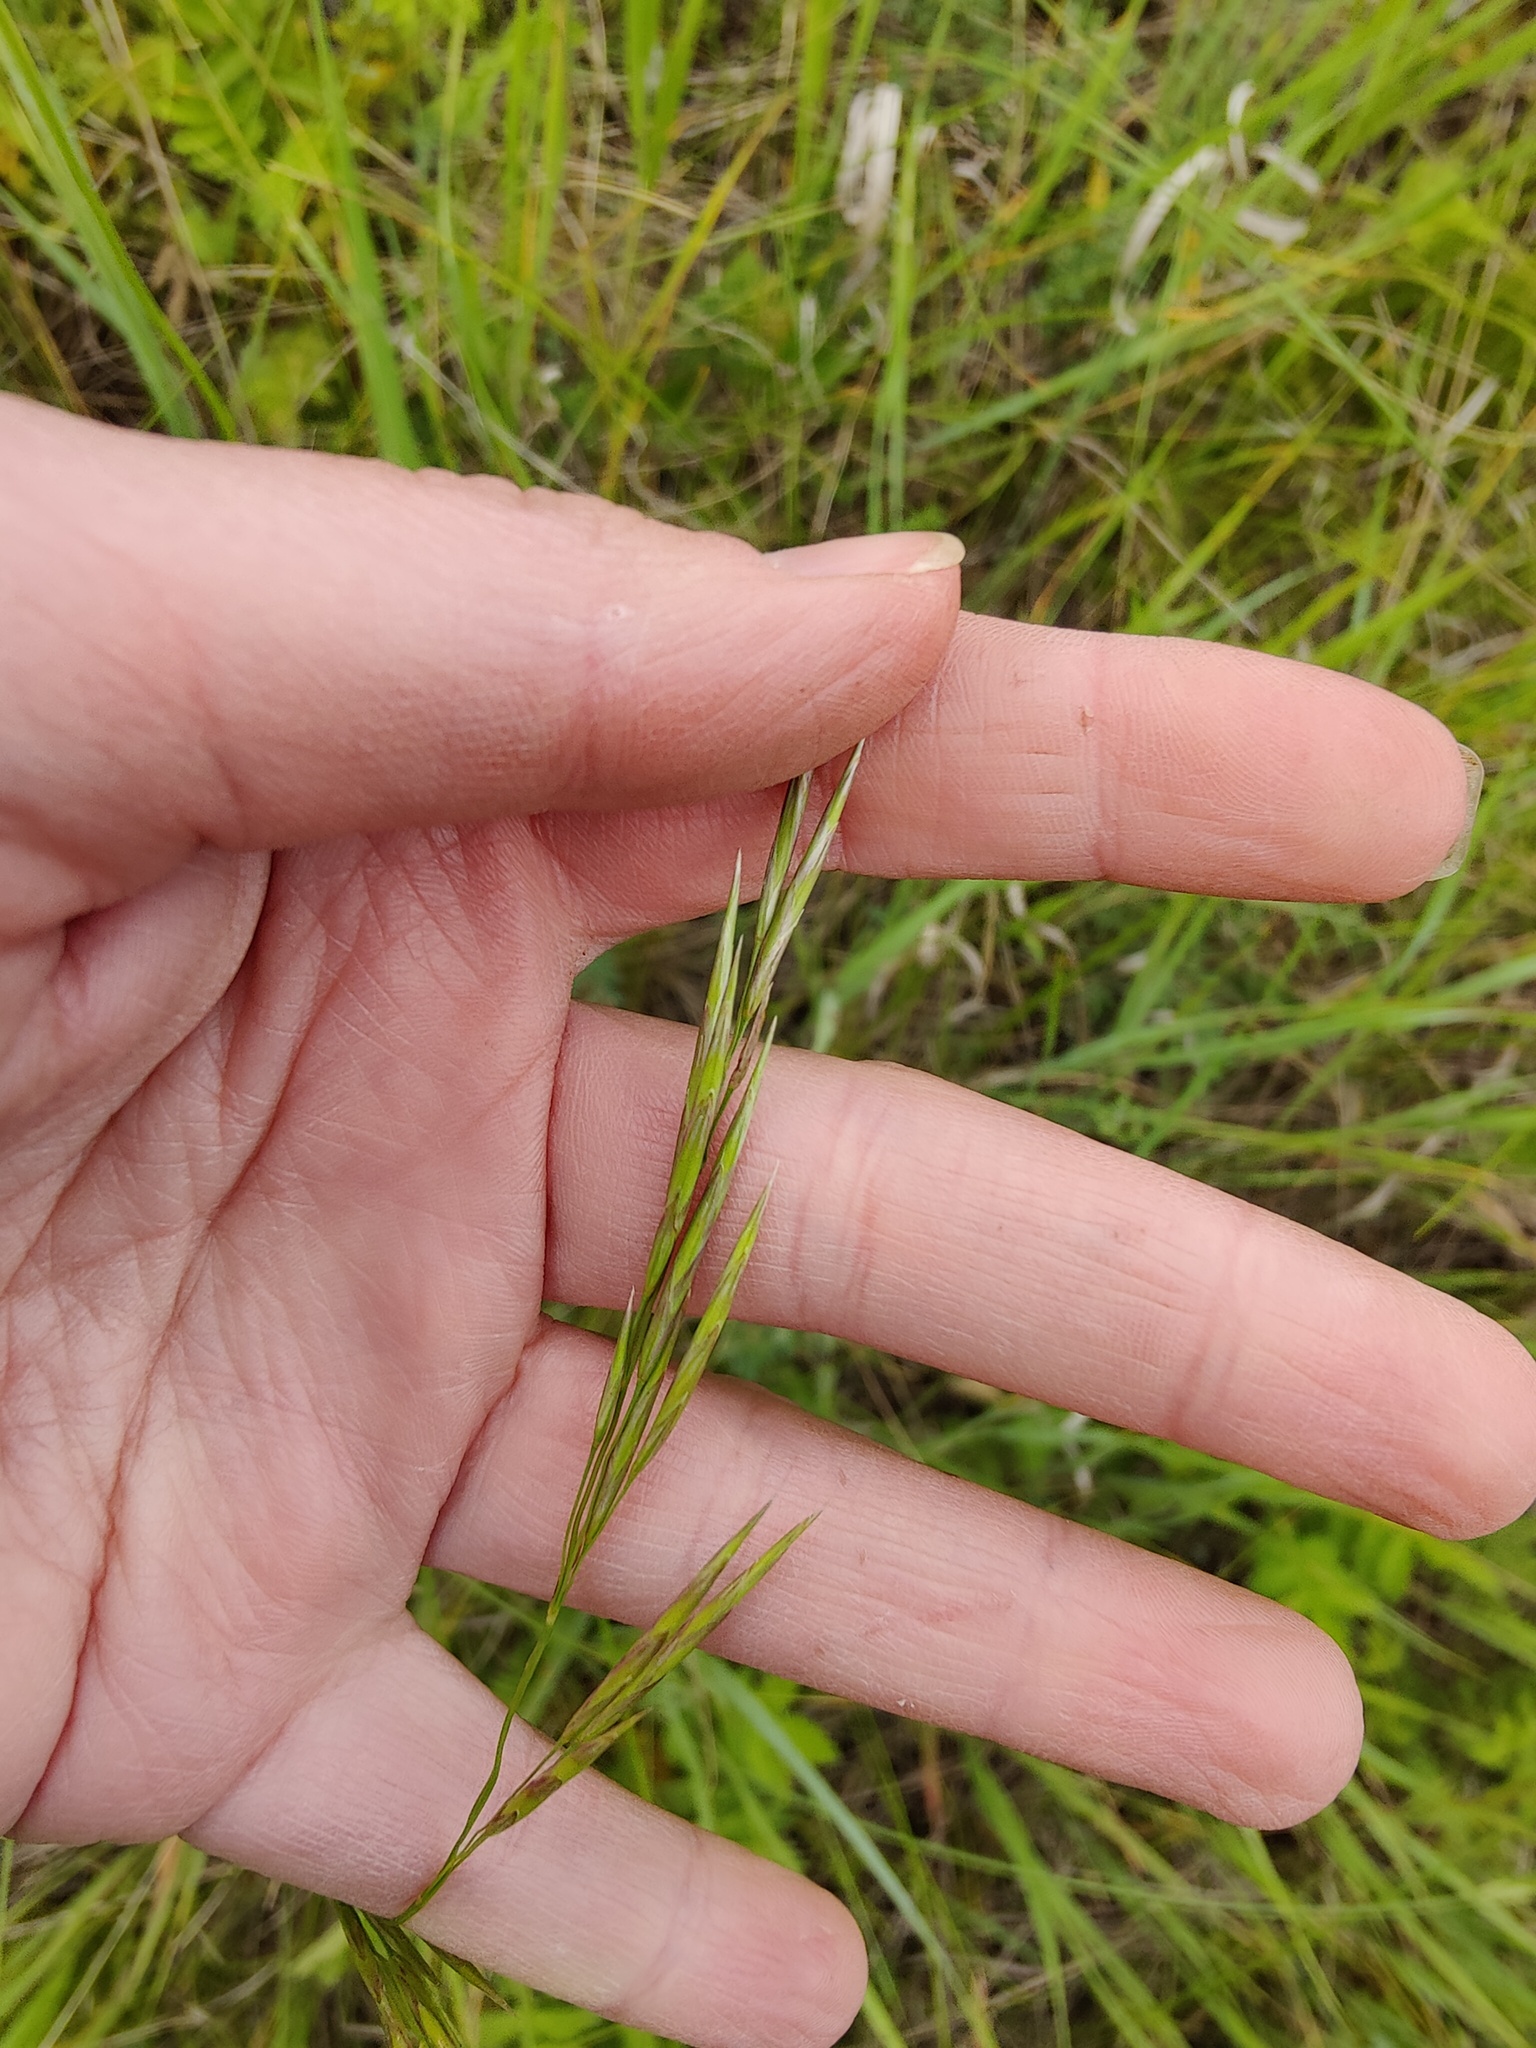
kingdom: Plantae
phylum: Tracheophyta
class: Liliopsida
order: Poales
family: Poaceae
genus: Bromus
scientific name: Bromus inermis
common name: Smooth brome
